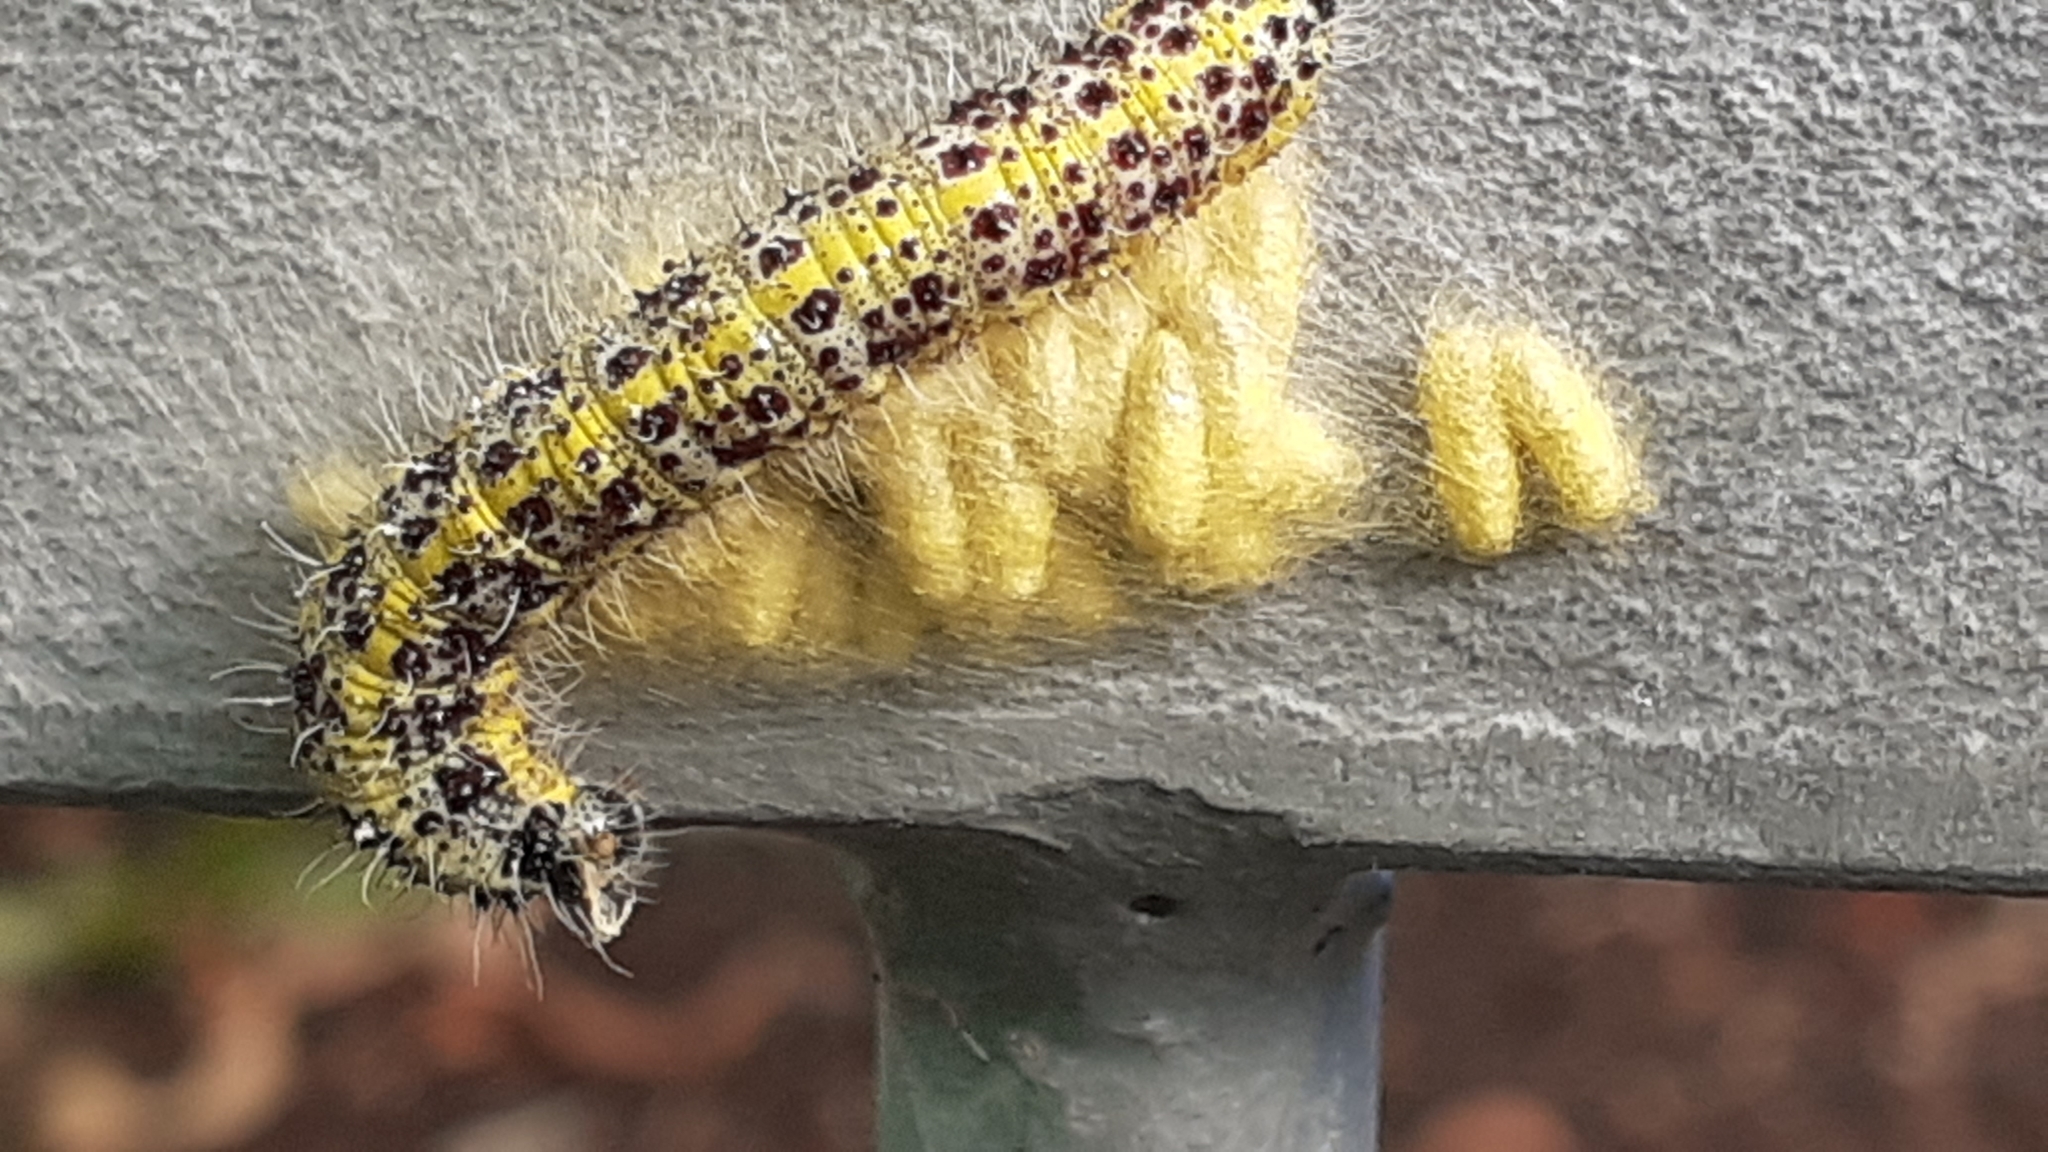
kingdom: Animalia
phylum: Arthropoda
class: Insecta
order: Lepidoptera
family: Pieridae
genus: Pieris
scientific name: Pieris brassicae
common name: Large white
